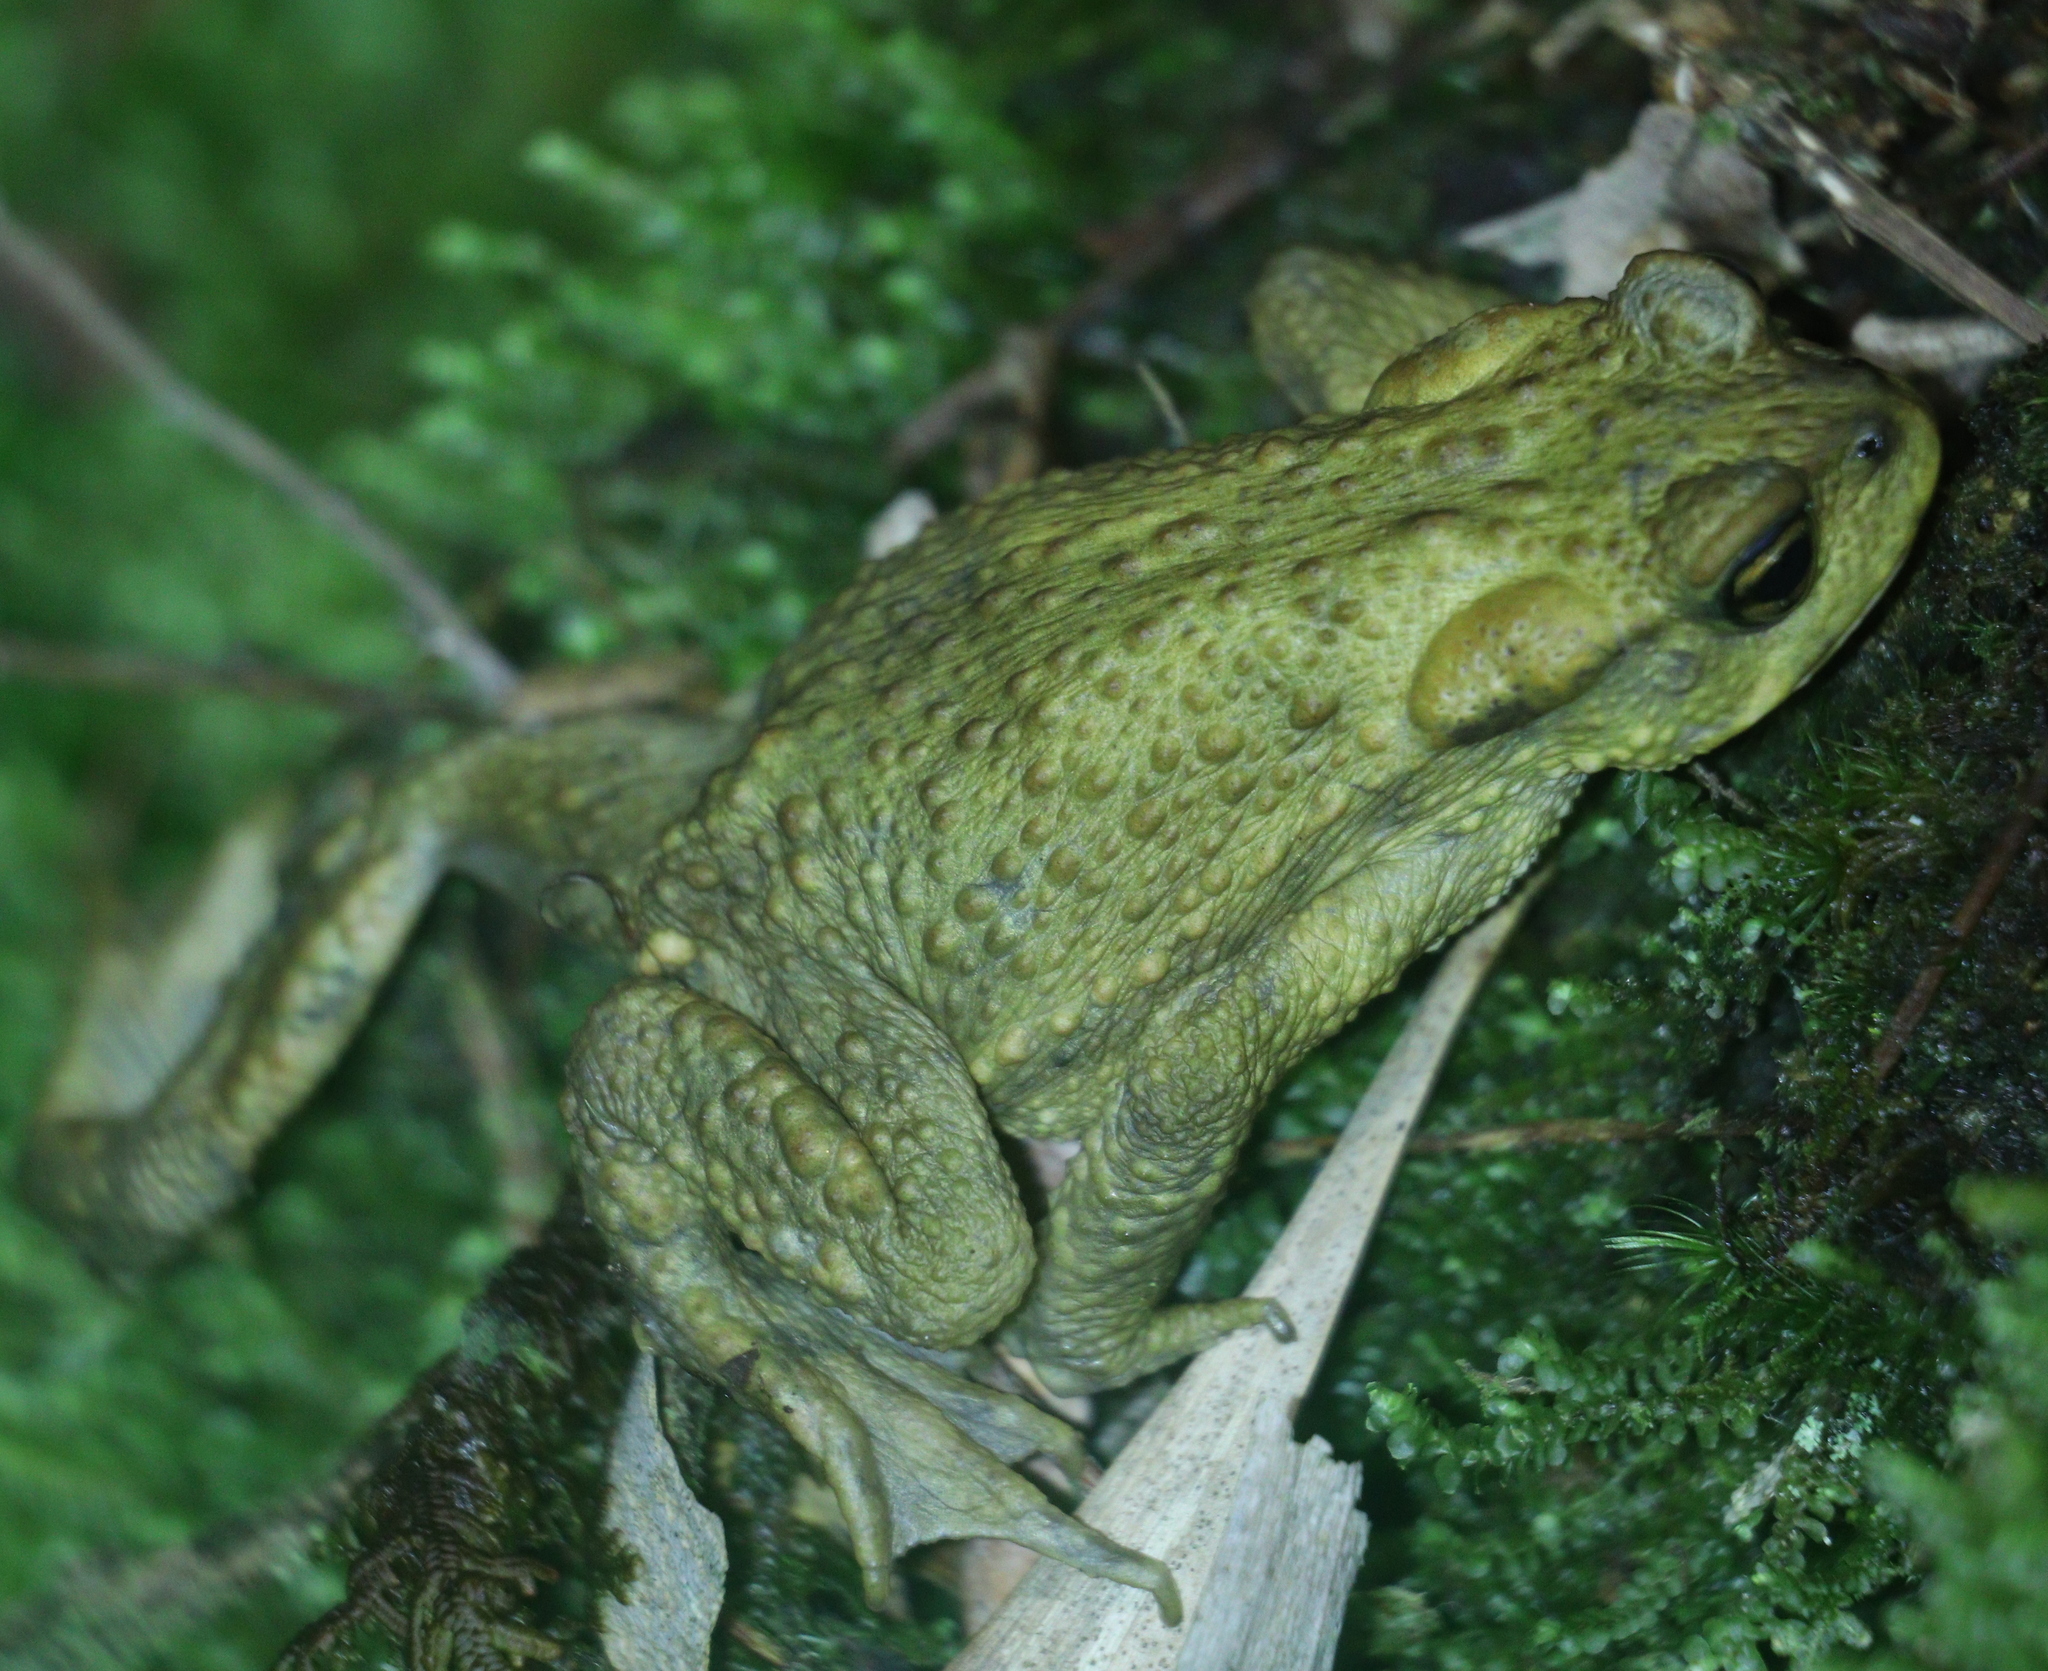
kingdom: Animalia
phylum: Chordata
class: Amphibia
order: Anura
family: Bufonidae
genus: Bufo
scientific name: Bufo spinosus
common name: Western common toad
